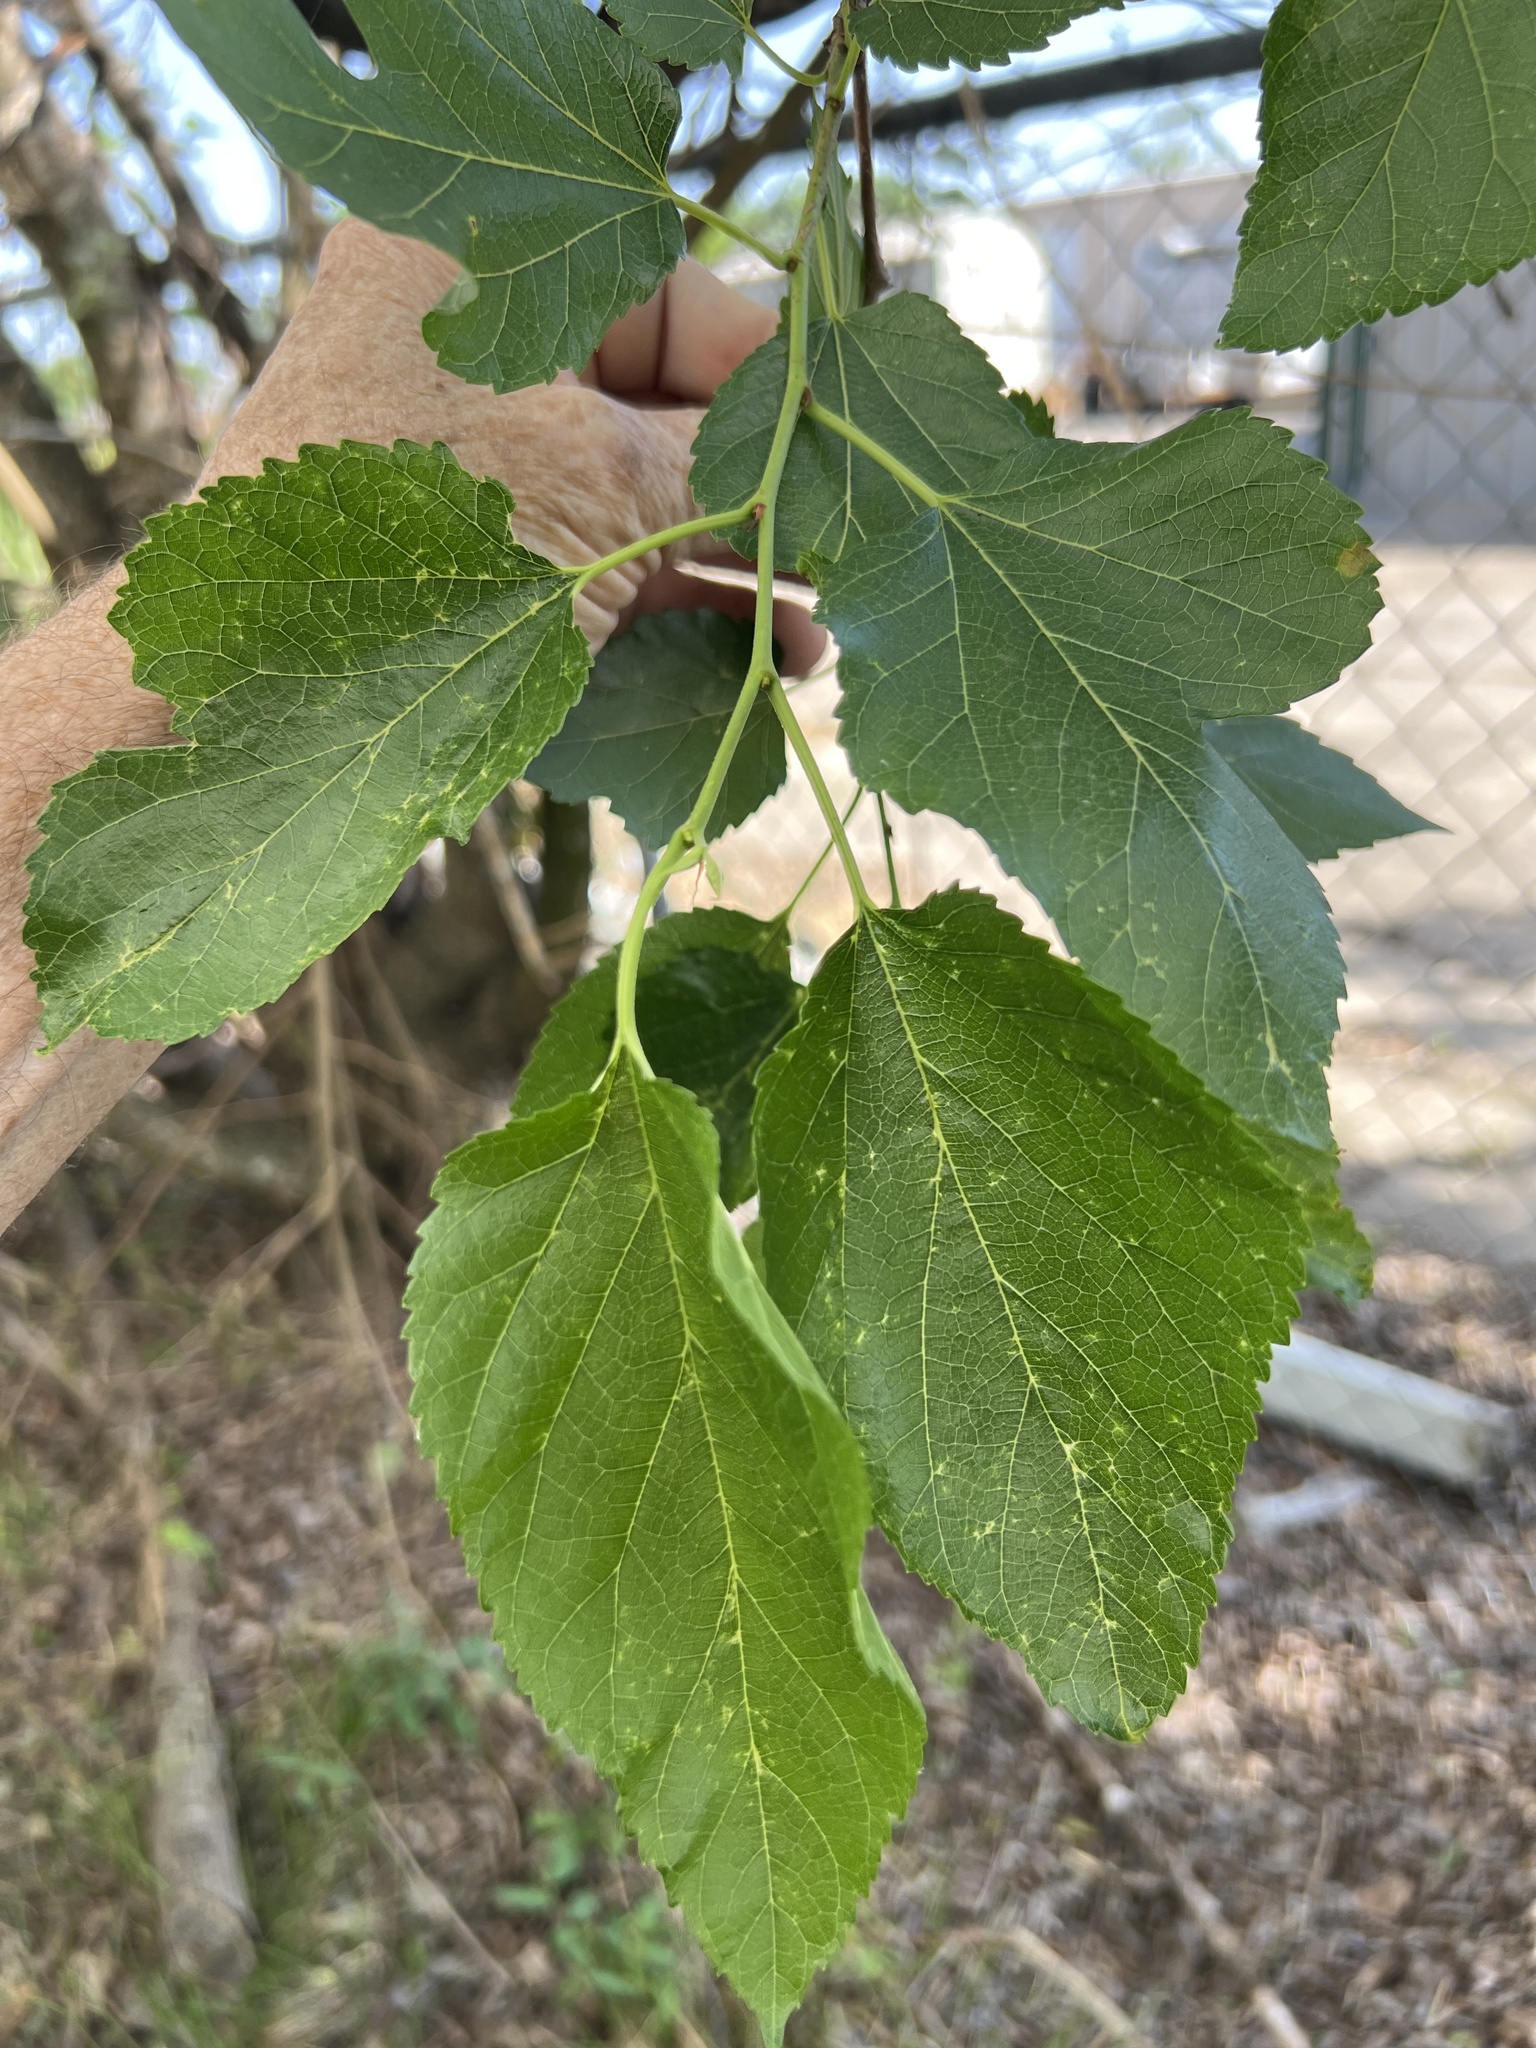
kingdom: Plantae
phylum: Tracheophyta
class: Magnoliopsida
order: Rosales
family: Moraceae
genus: Morus
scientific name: Morus alba
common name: White mulberry
